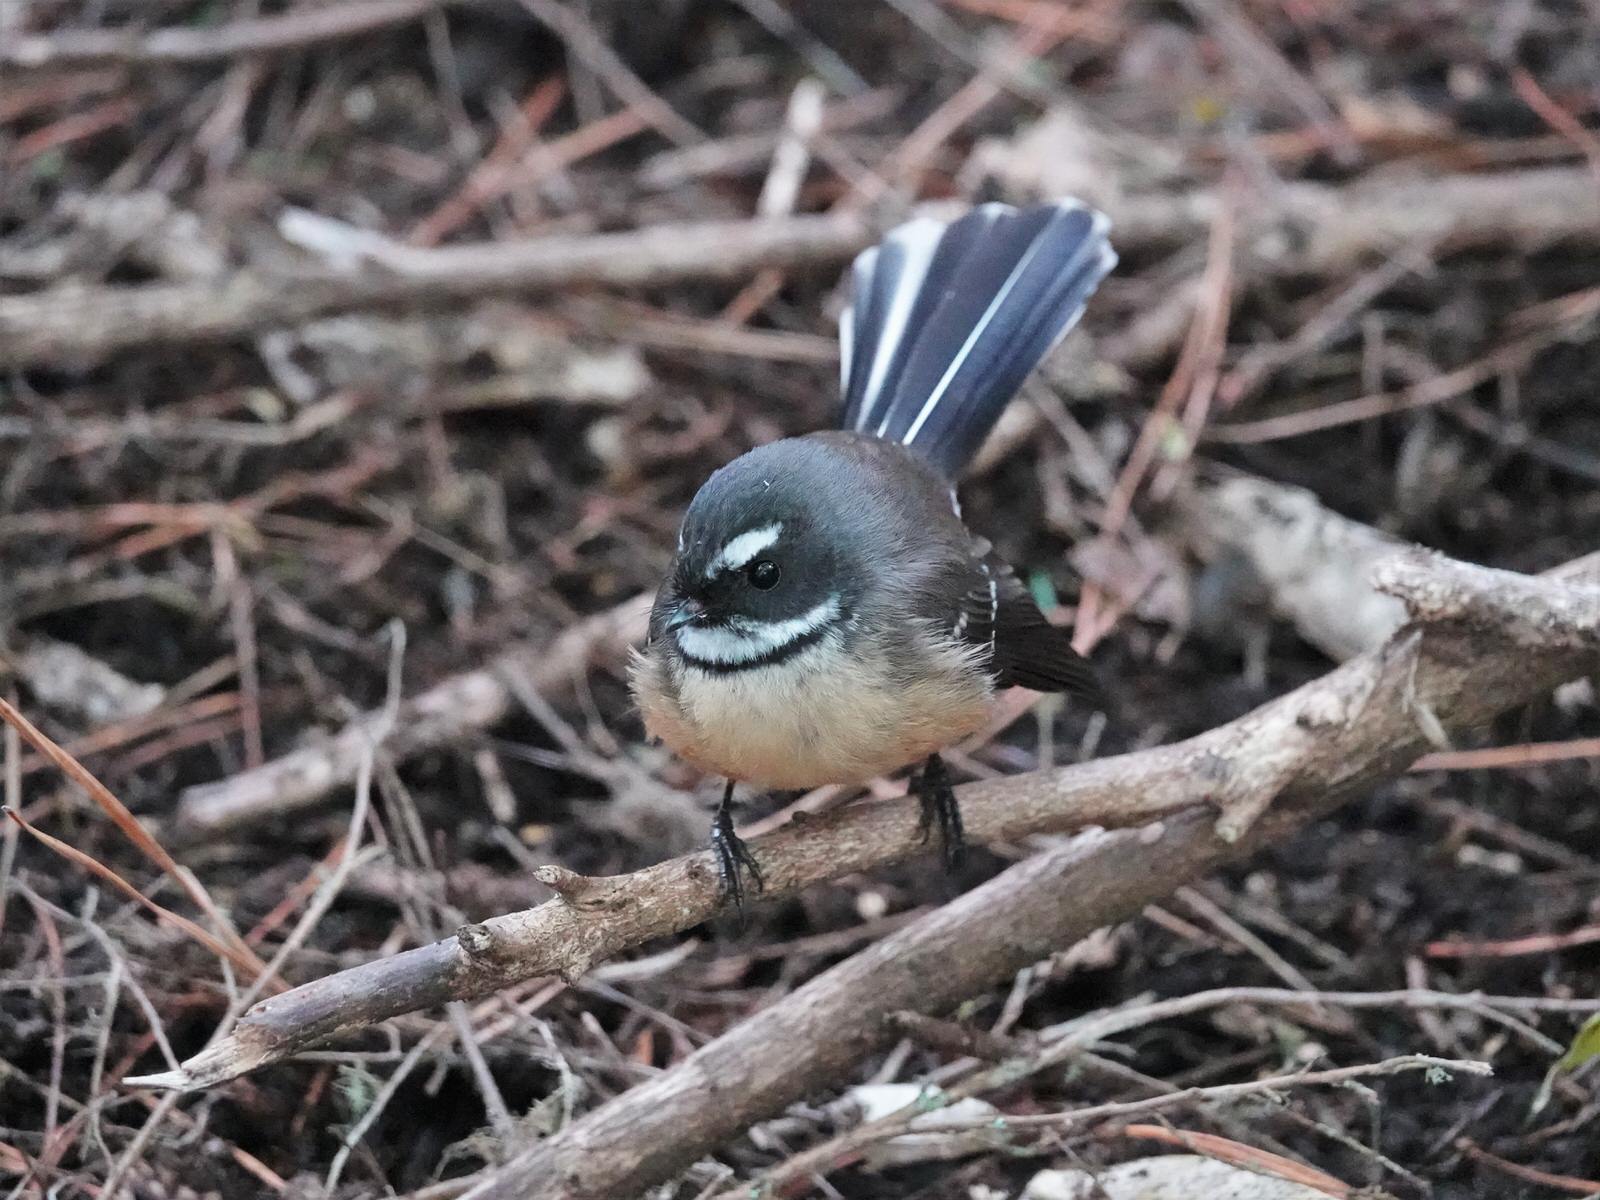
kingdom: Animalia
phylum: Chordata
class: Aves
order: Passeriformes
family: Rhipiduridae
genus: Rhipidura
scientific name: Rhipidura fuliginosa
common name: New zealand fantail
